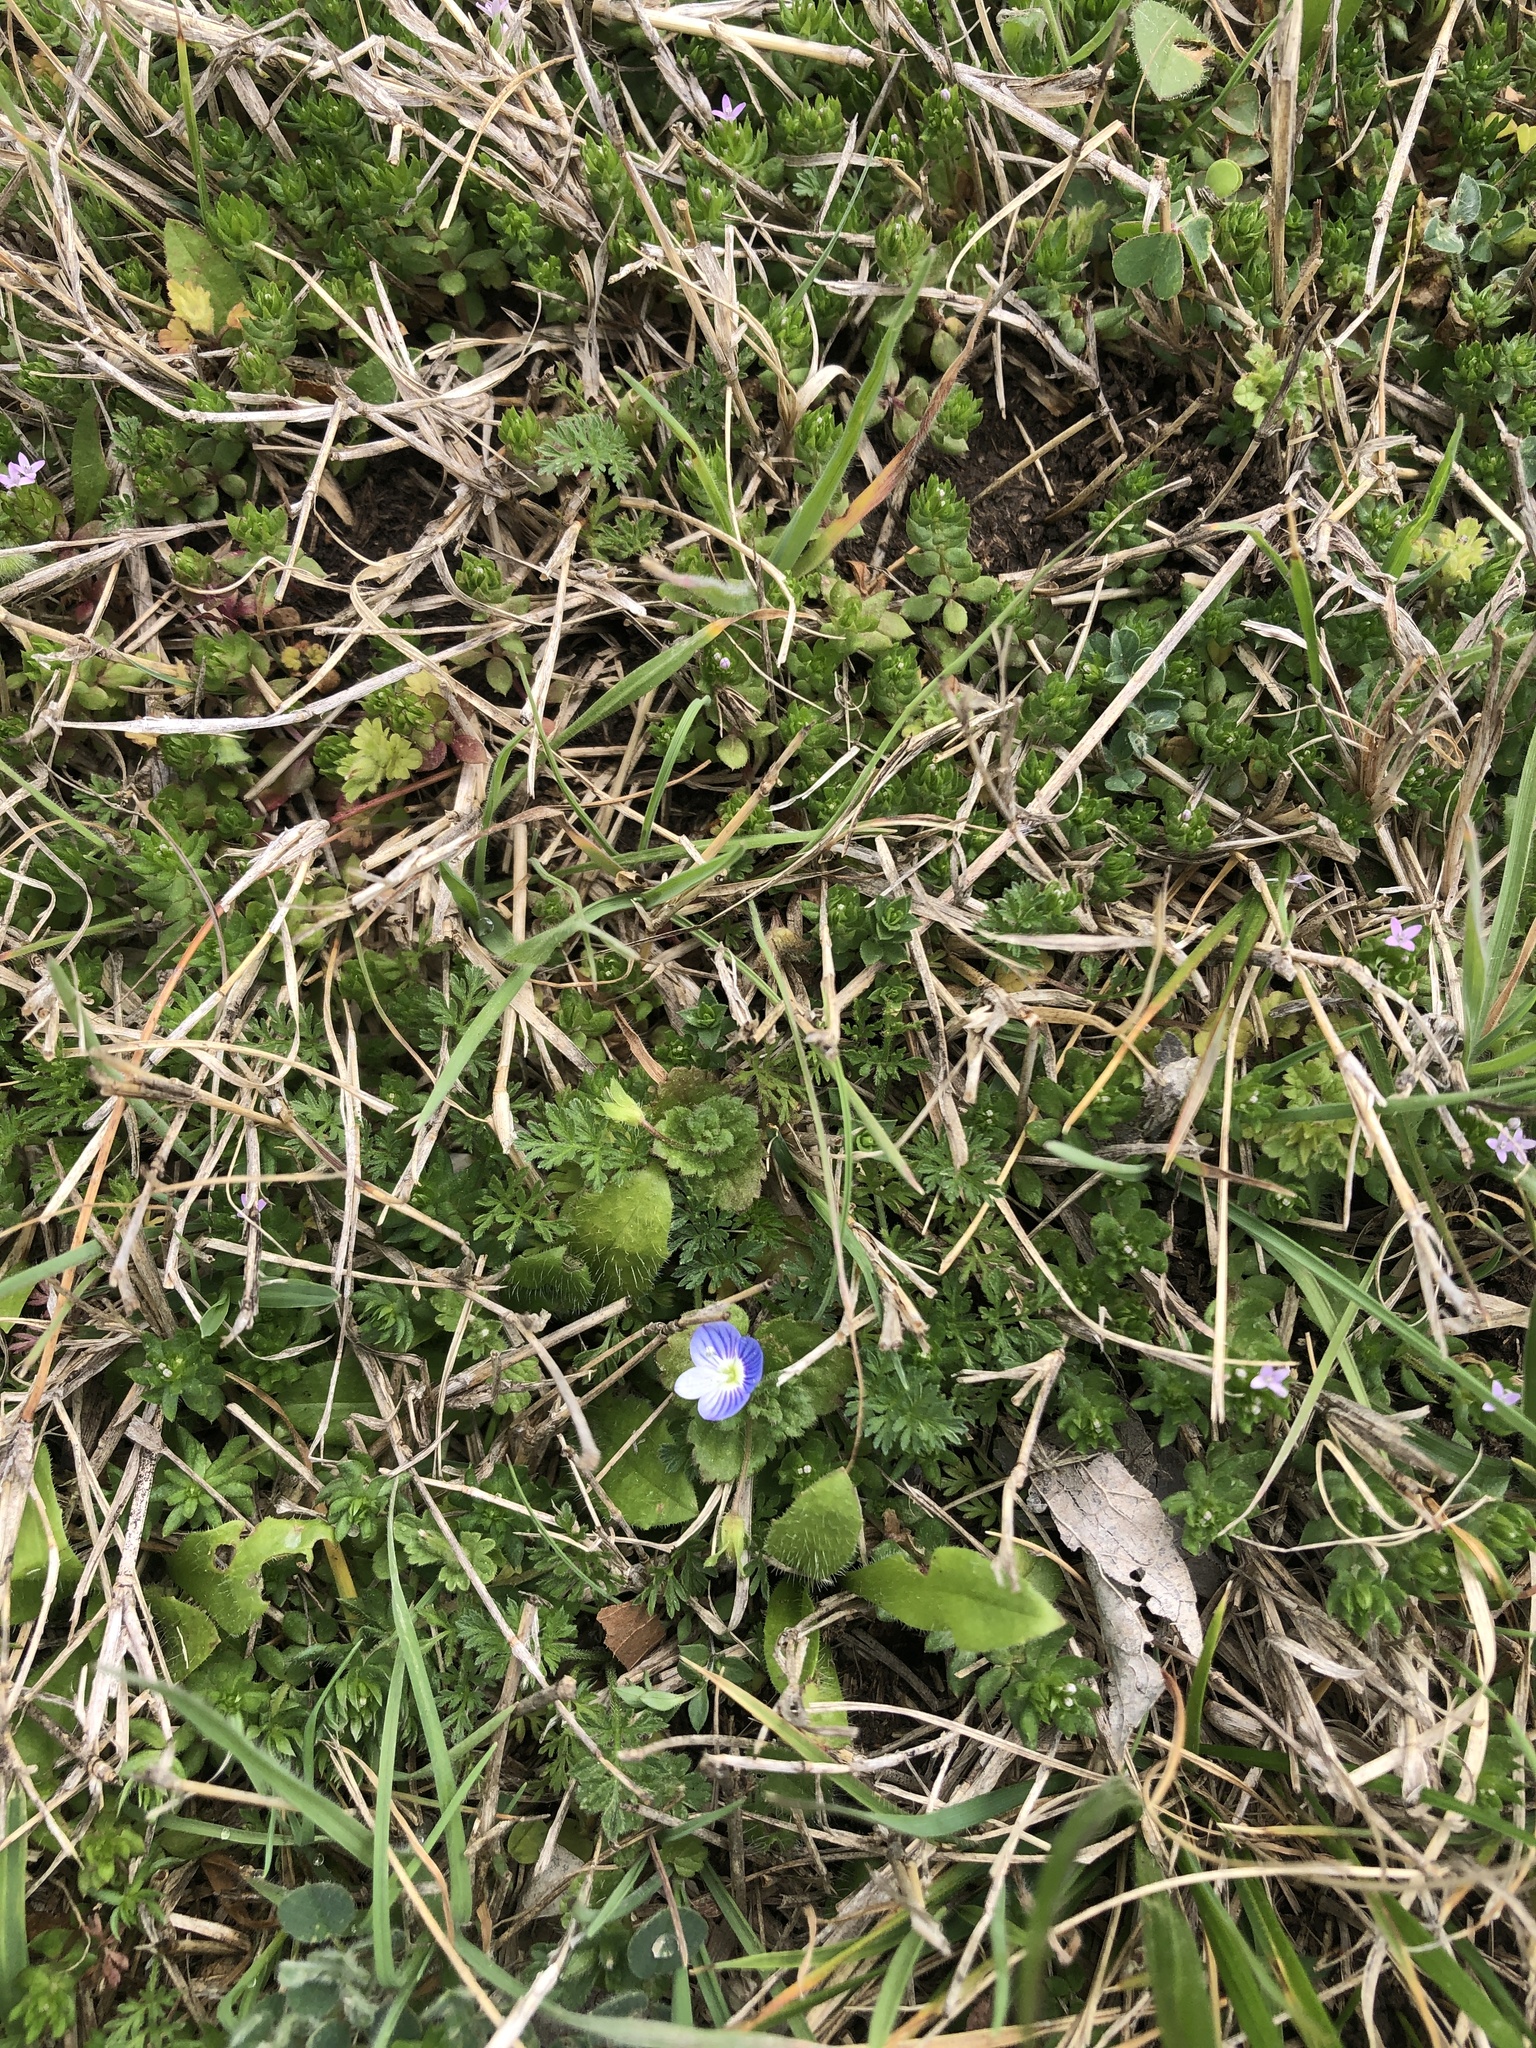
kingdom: Plantae
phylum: Tracheophyta
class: Magnoliopsida
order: Lamiales
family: Plantaginaceae
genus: Veronica
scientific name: Veronica persica
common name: Common field-speedwell
